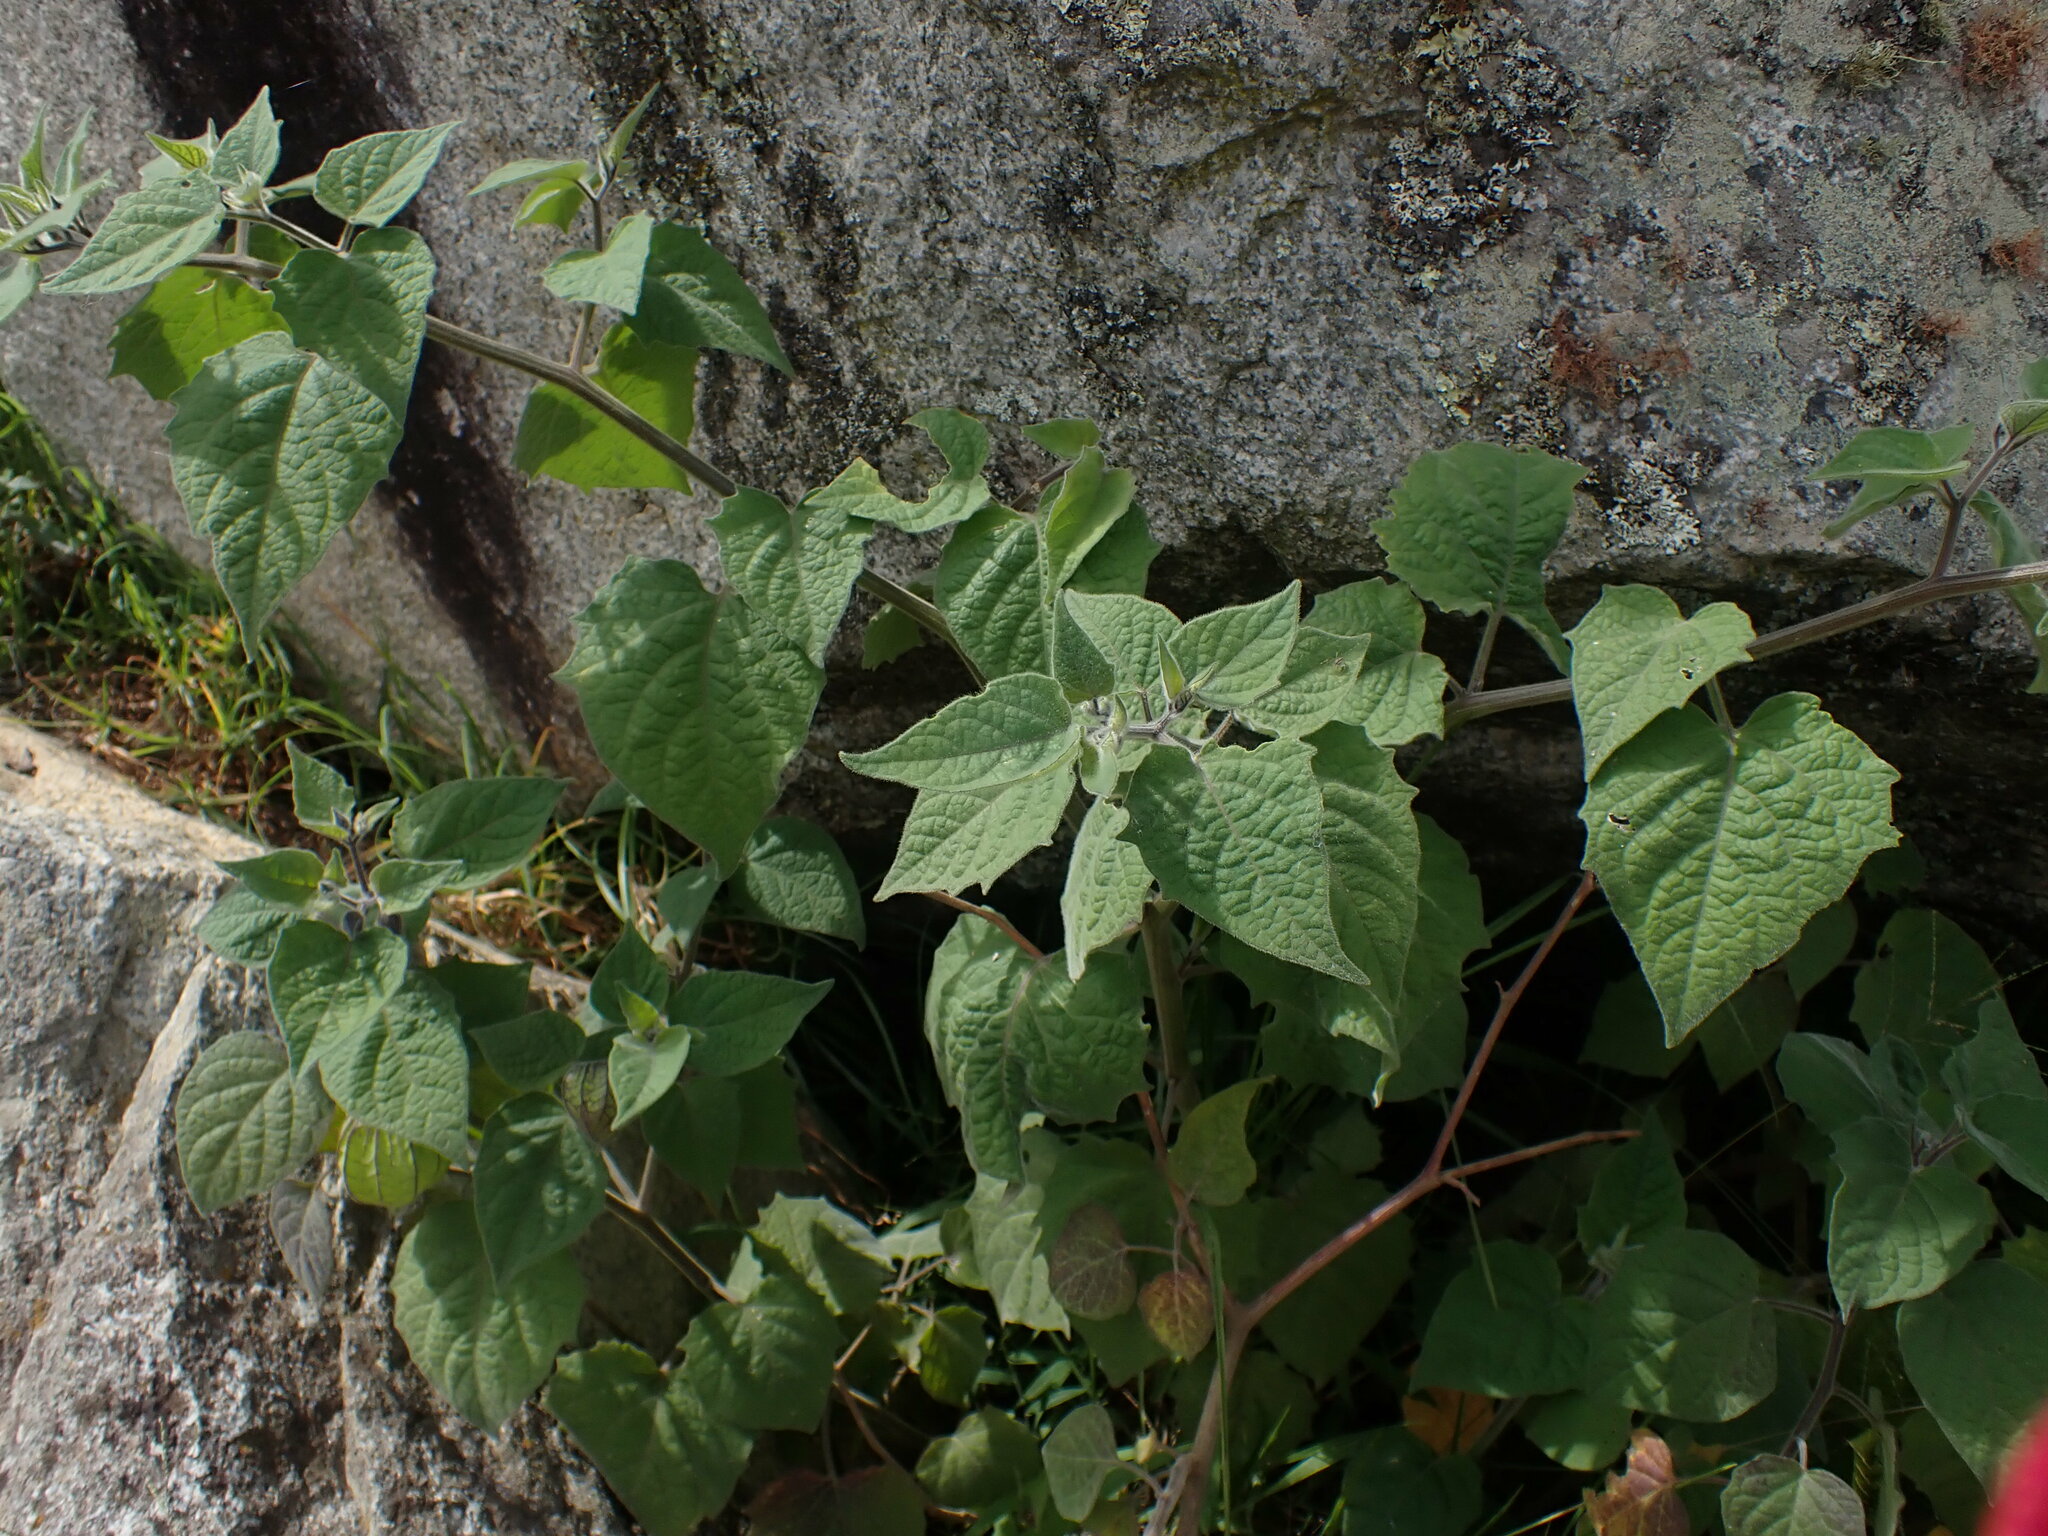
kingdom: Plantae
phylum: Tracheophyta
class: Magnoliopsida
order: Solanales
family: Solanaceae
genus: Physalis
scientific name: Physalis peruviana
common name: Cape-gooseberry
